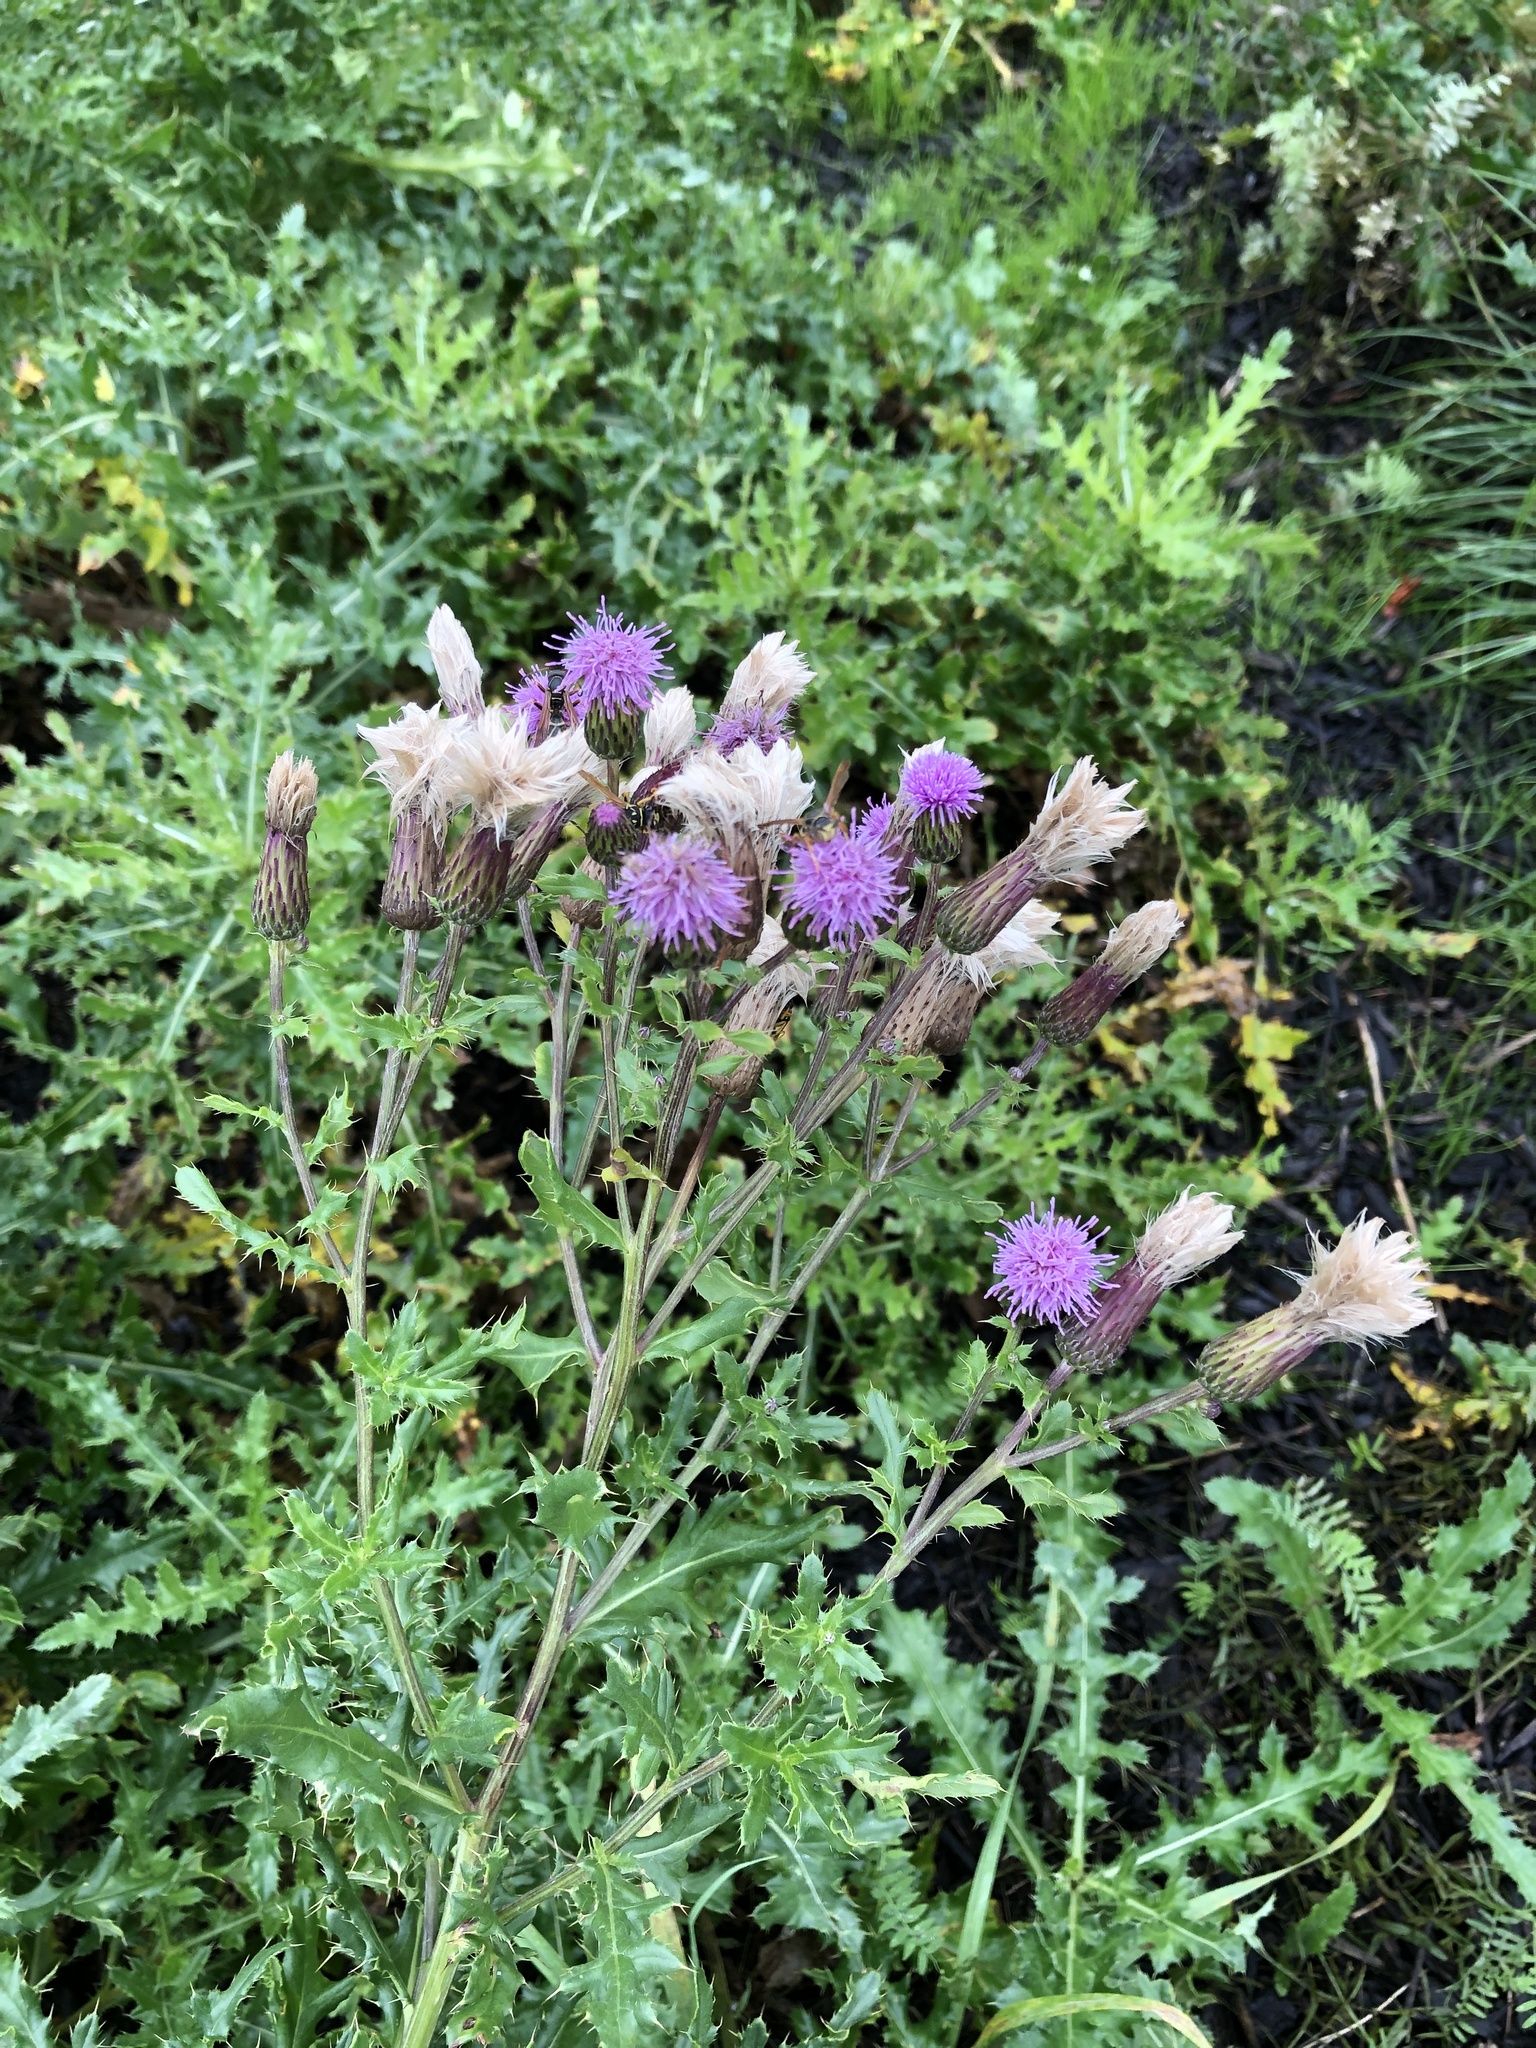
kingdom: Plantae
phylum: Tracheophyta
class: Magnoliopsida
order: Asterales
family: Asteraceae
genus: Cirsium
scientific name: Cirsium arvense
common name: Creeping thistle
